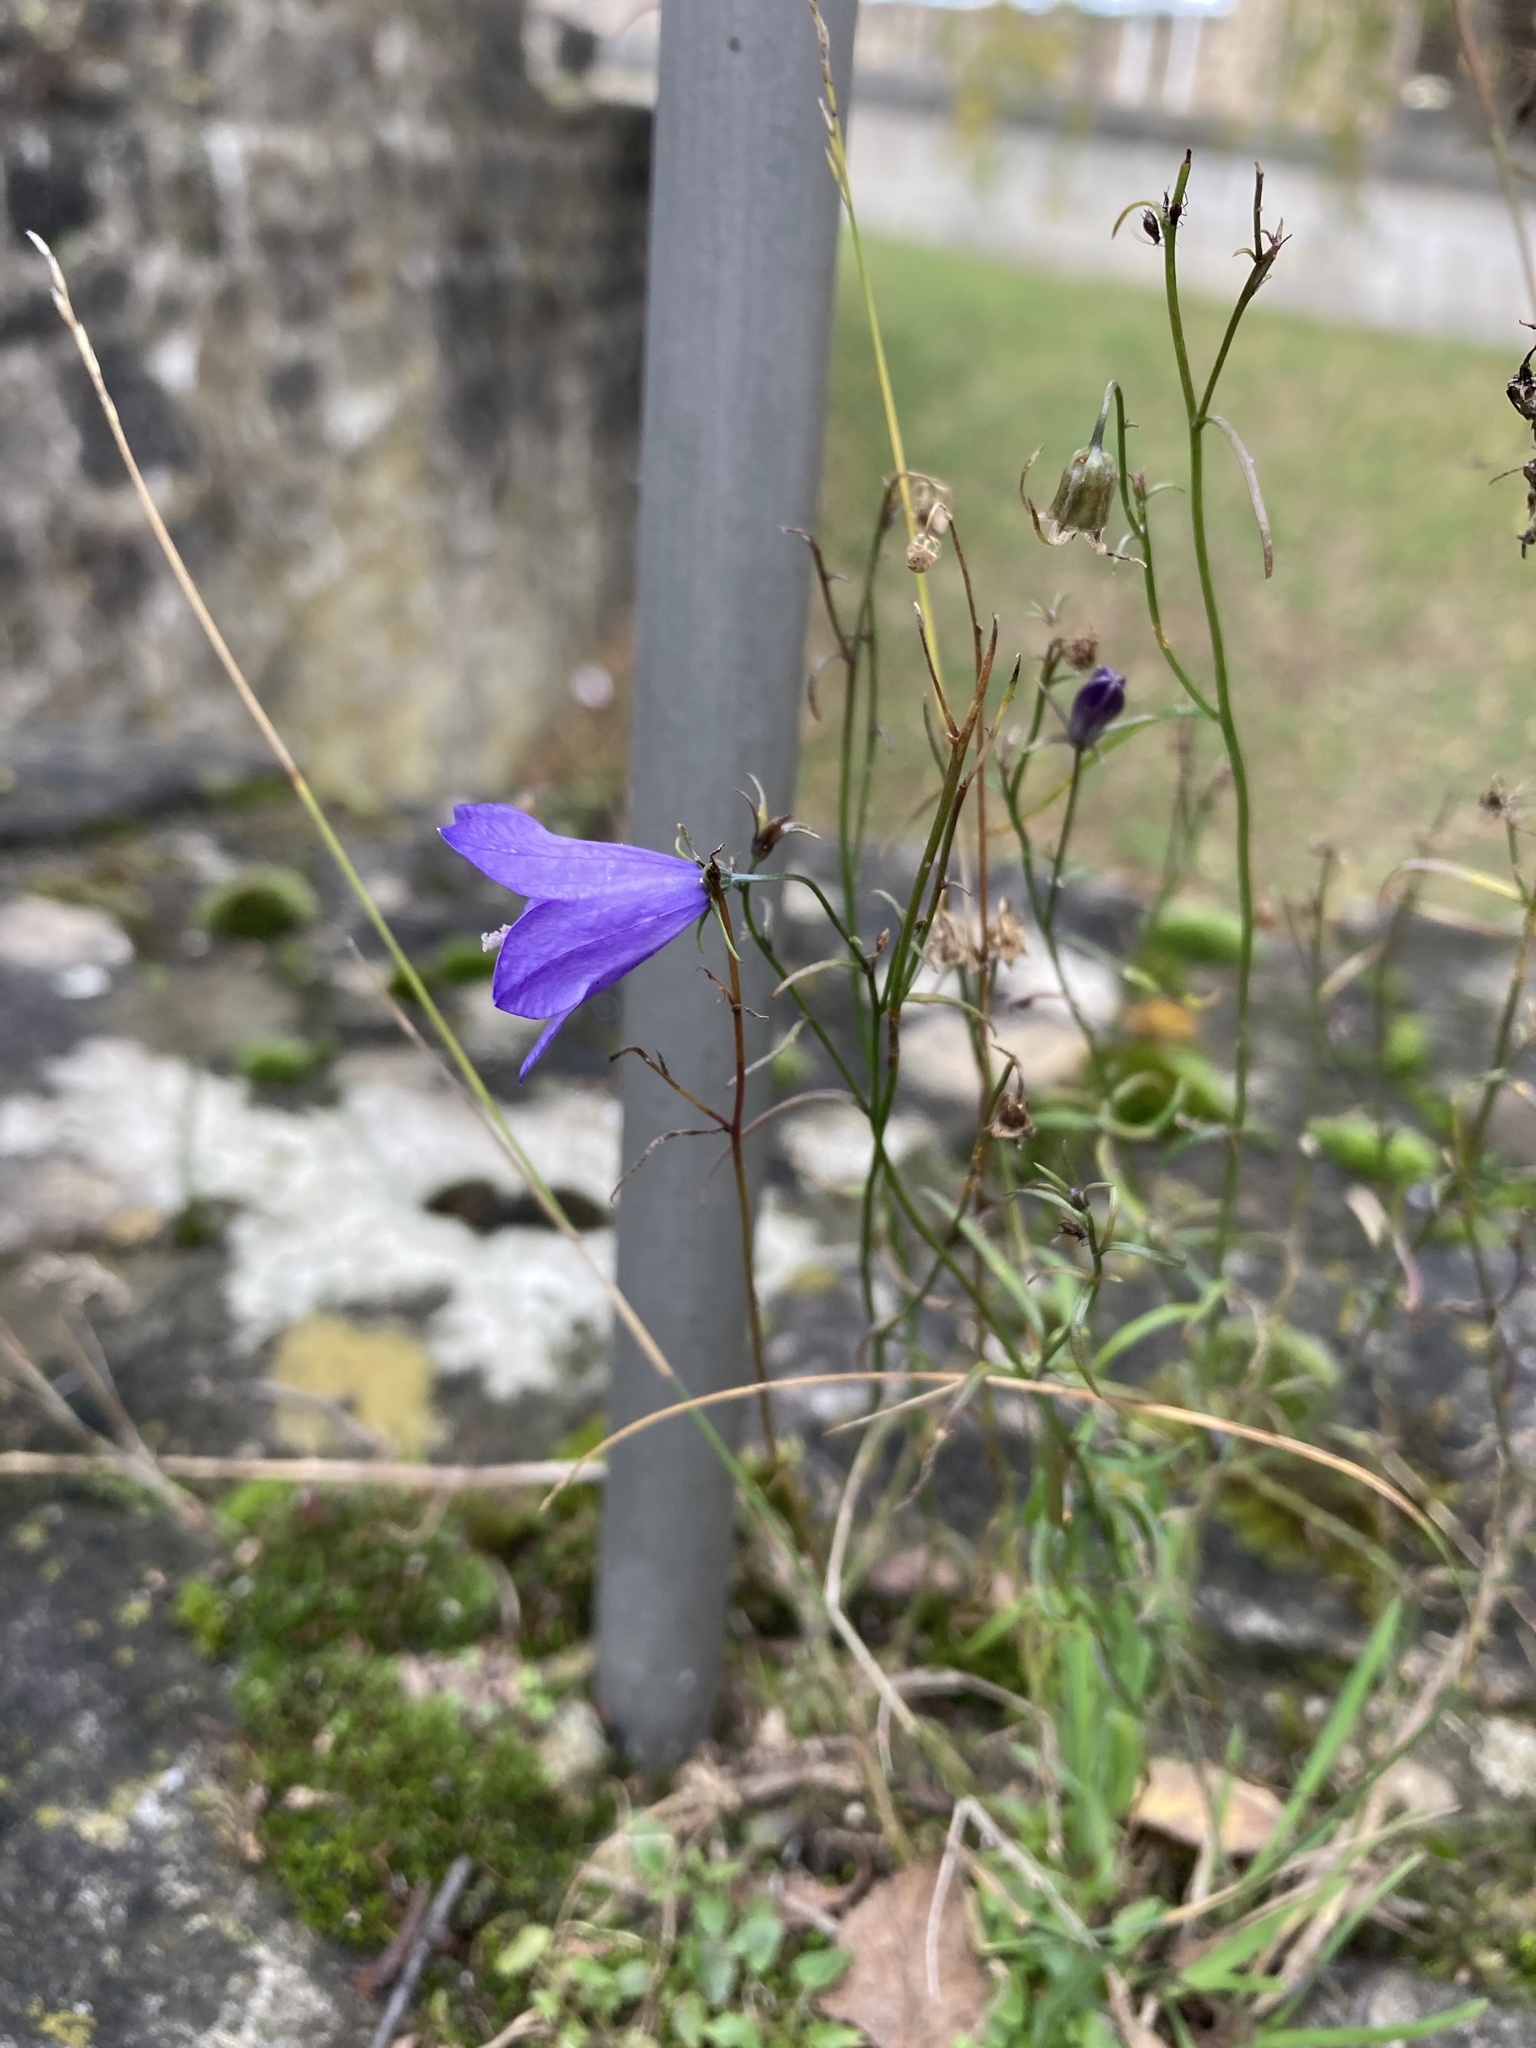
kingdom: Plantae
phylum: Tracheophyta
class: Magnoliopsida
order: Asterales
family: Campanulaceae
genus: Campanula
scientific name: Campanula rotundifolia
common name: Harebell
